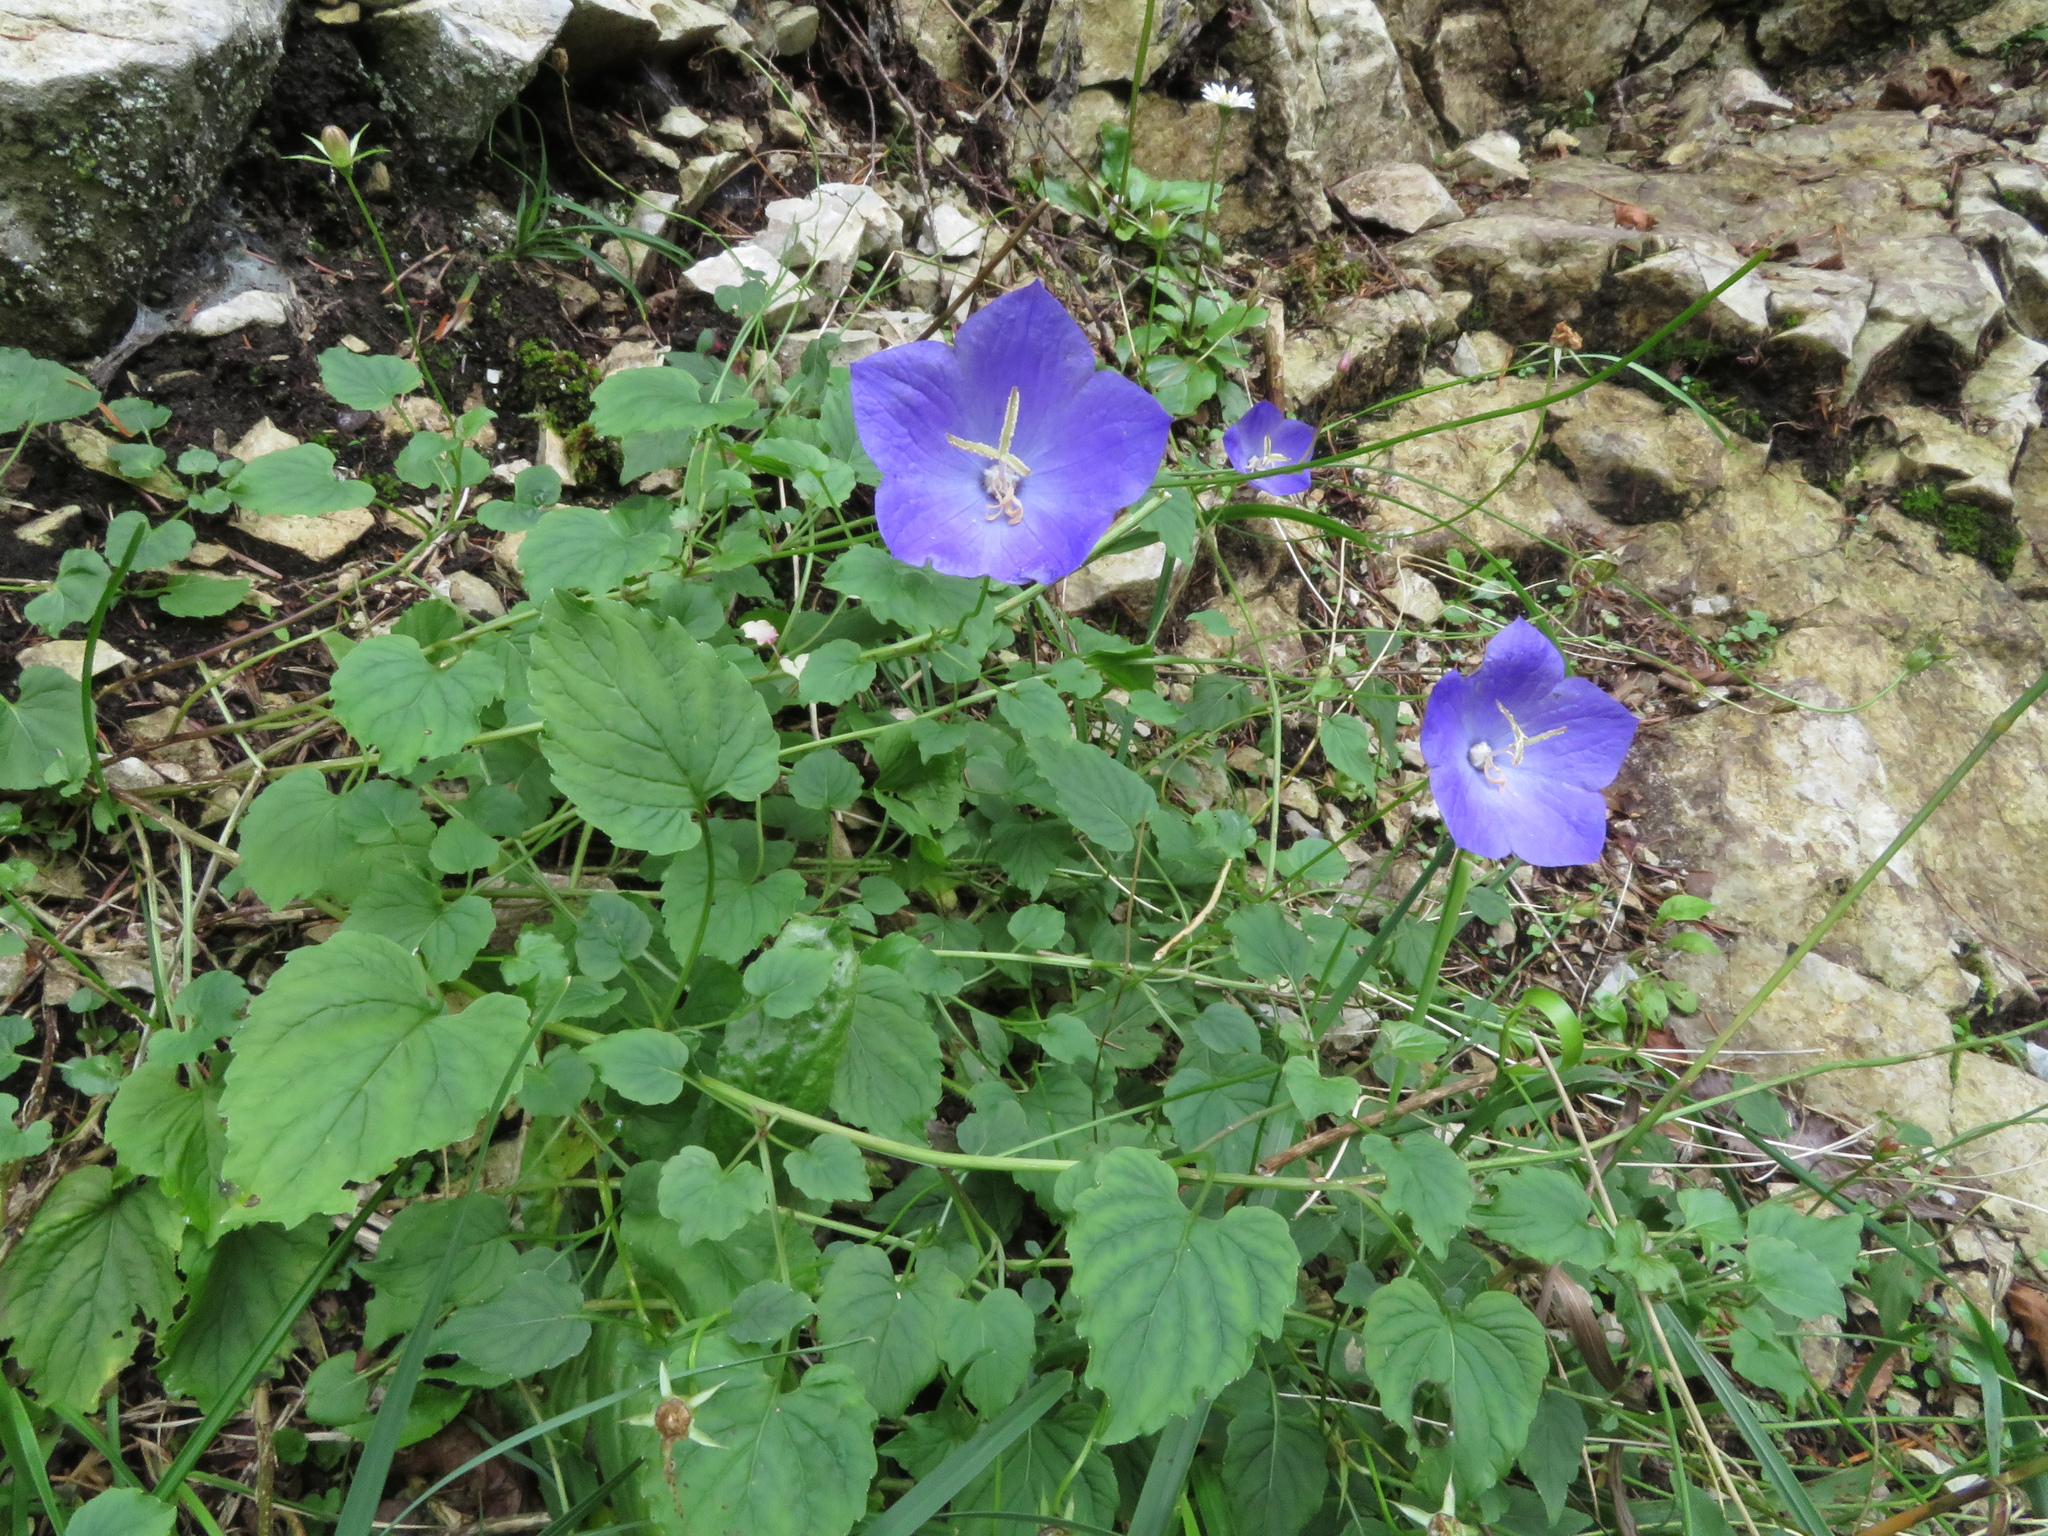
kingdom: Plantae
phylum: Tracheophyta
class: Magnoliopsida
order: Asterales
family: Campanulaceae
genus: Campanula
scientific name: Campanula carpatica
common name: Tussock bellflower
